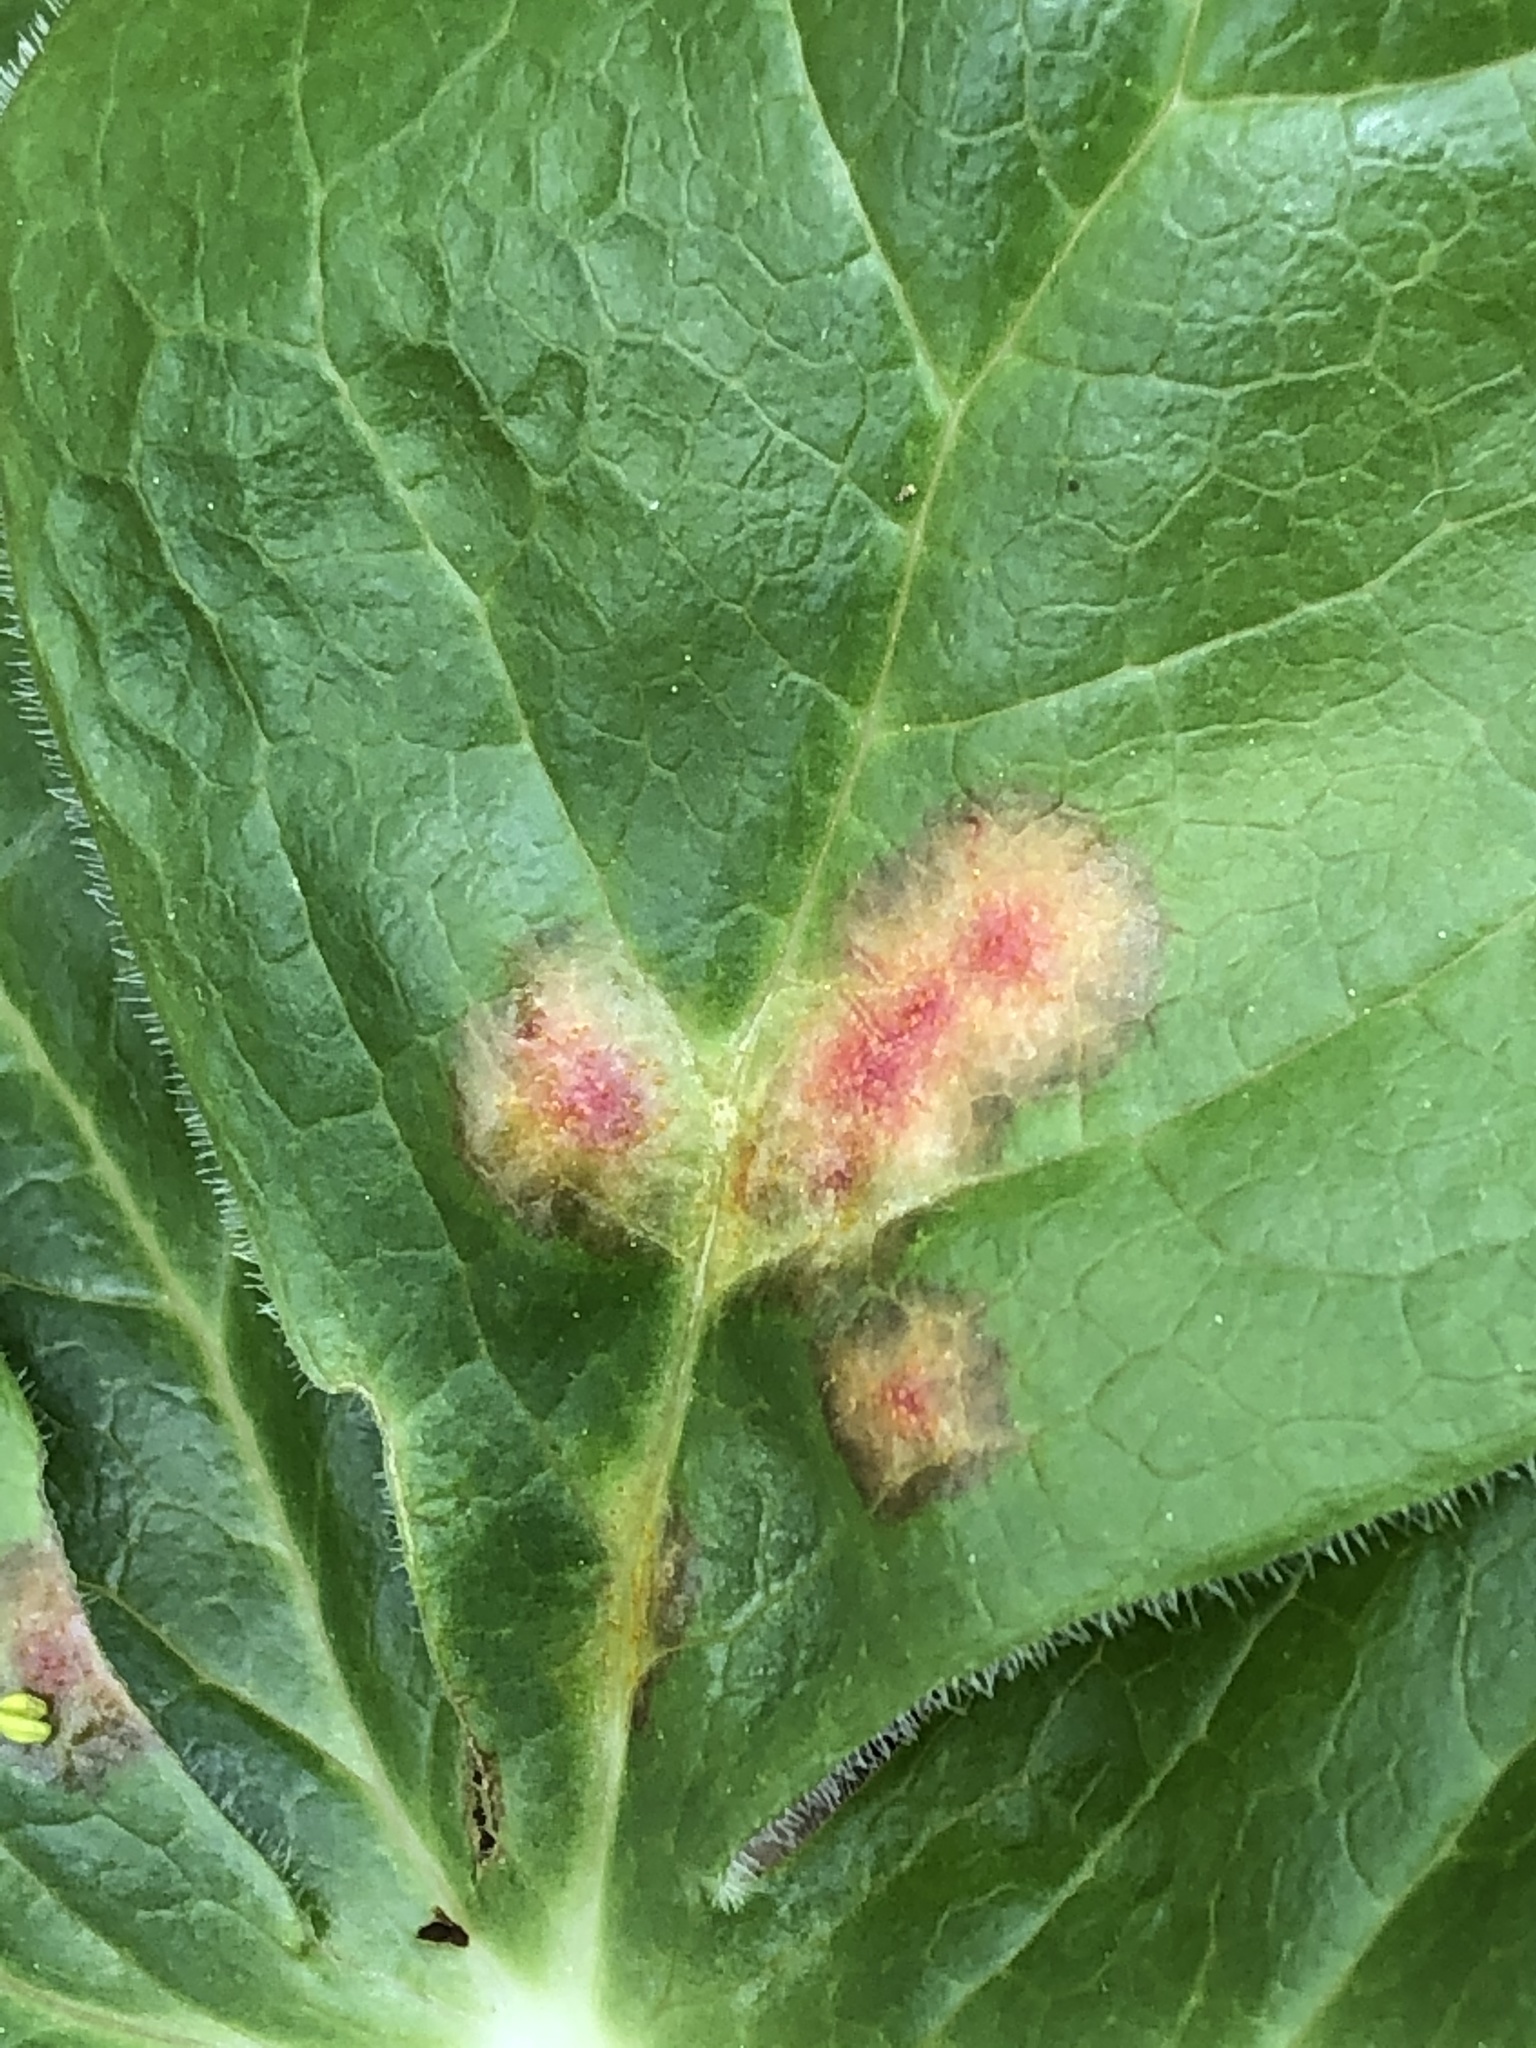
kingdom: Fungi
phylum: Basidiomycota
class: Pucciniomycetes
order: Pucciniales
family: Pucciniaceae
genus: Puccinia
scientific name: Puccinia podophylli
